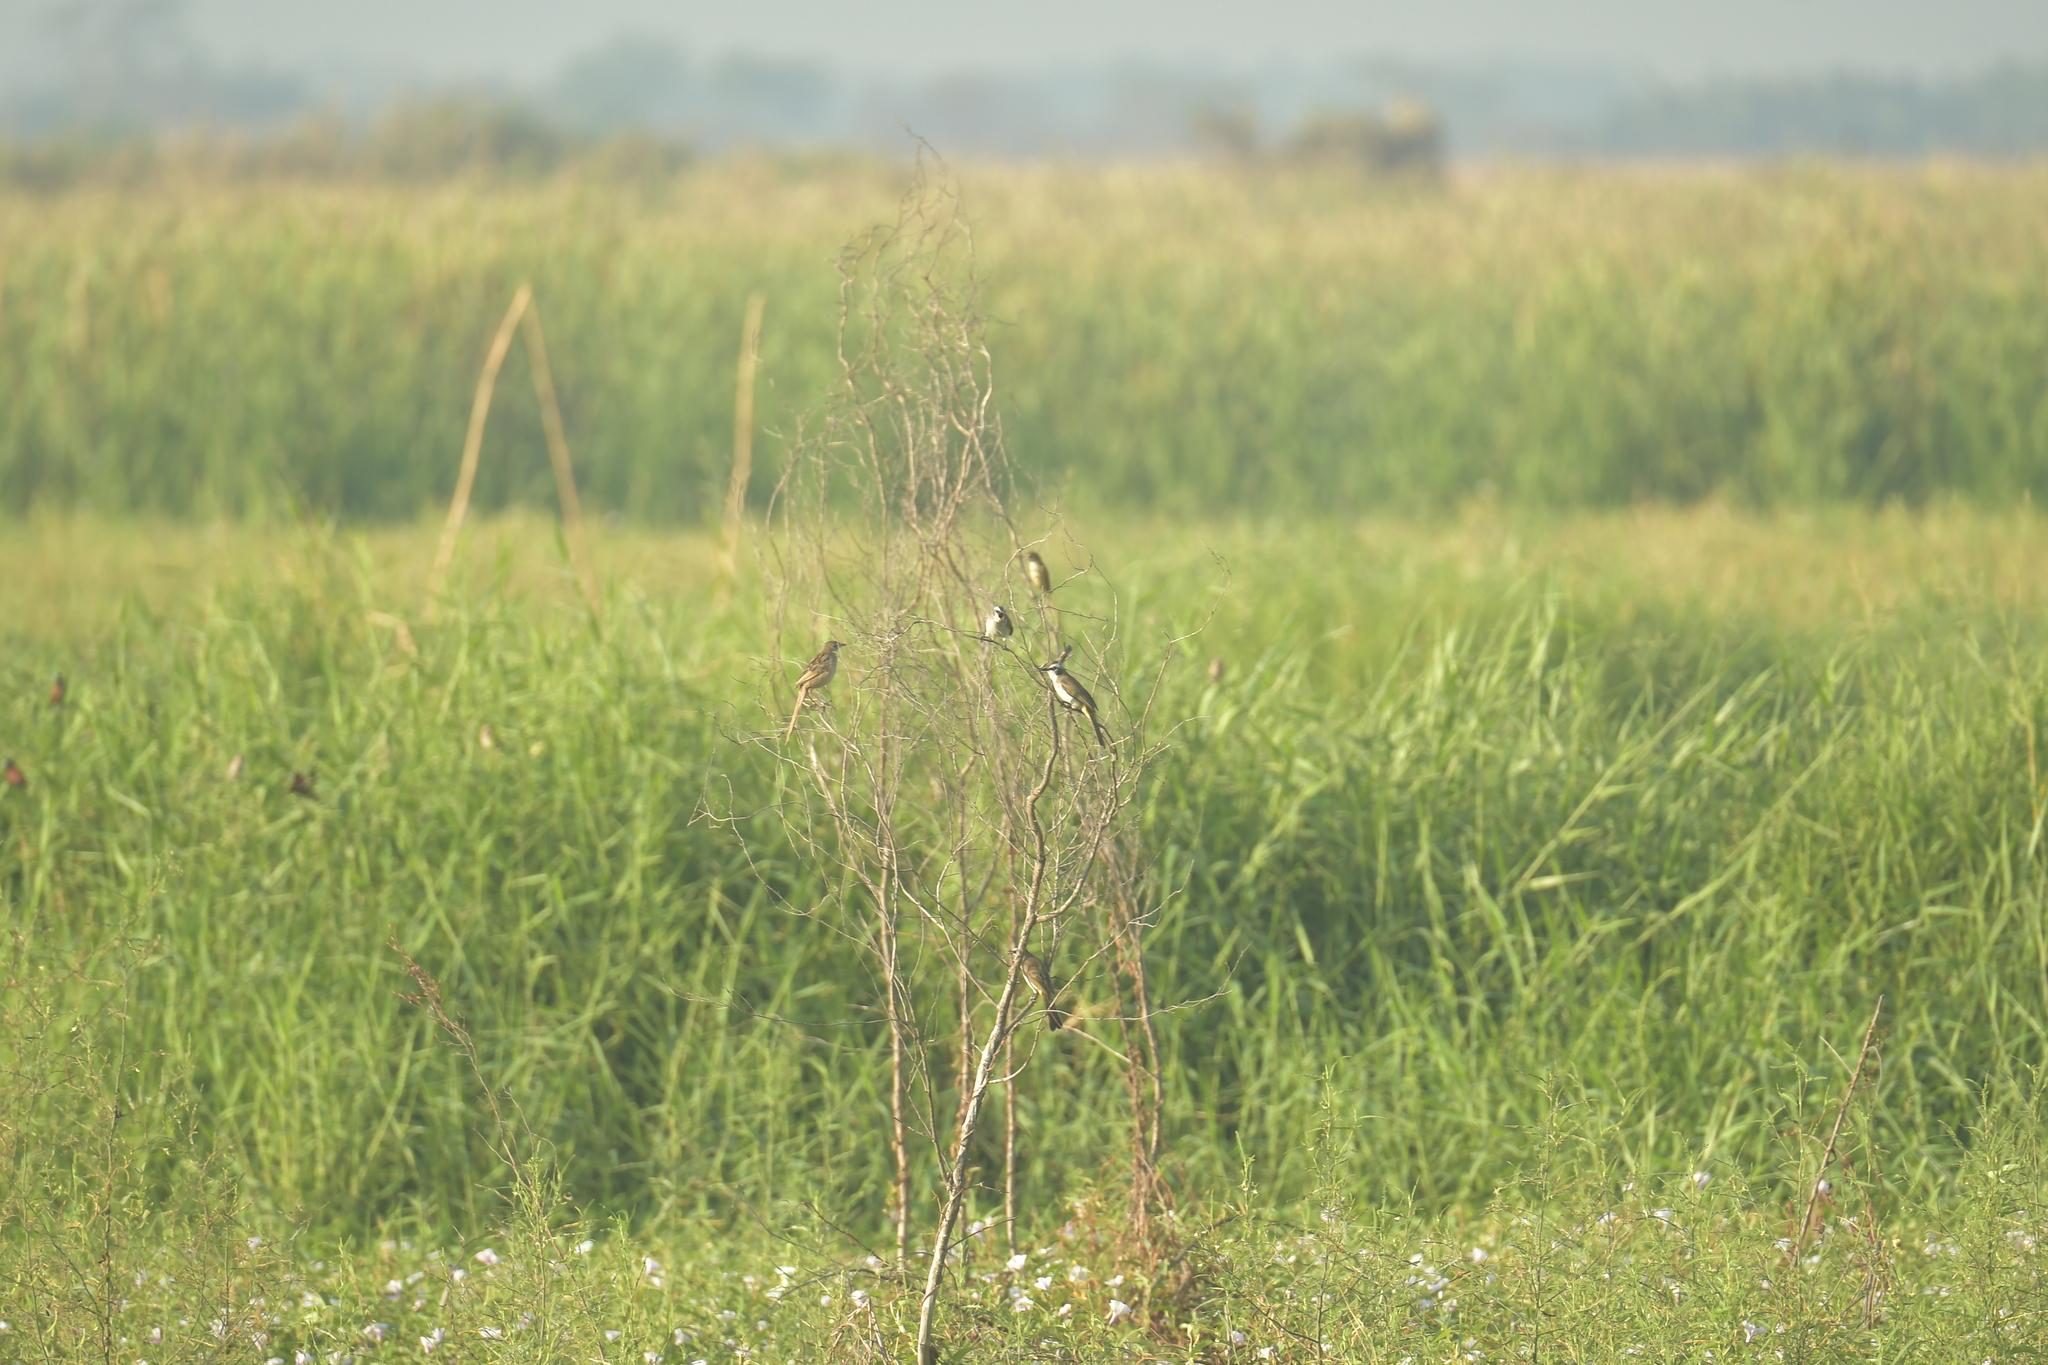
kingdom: Animalia
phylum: Chordata
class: Aves
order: Passeriformes
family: Locustellidae
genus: Megalurus
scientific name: Megalurus palustris
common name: Striated grassbird
